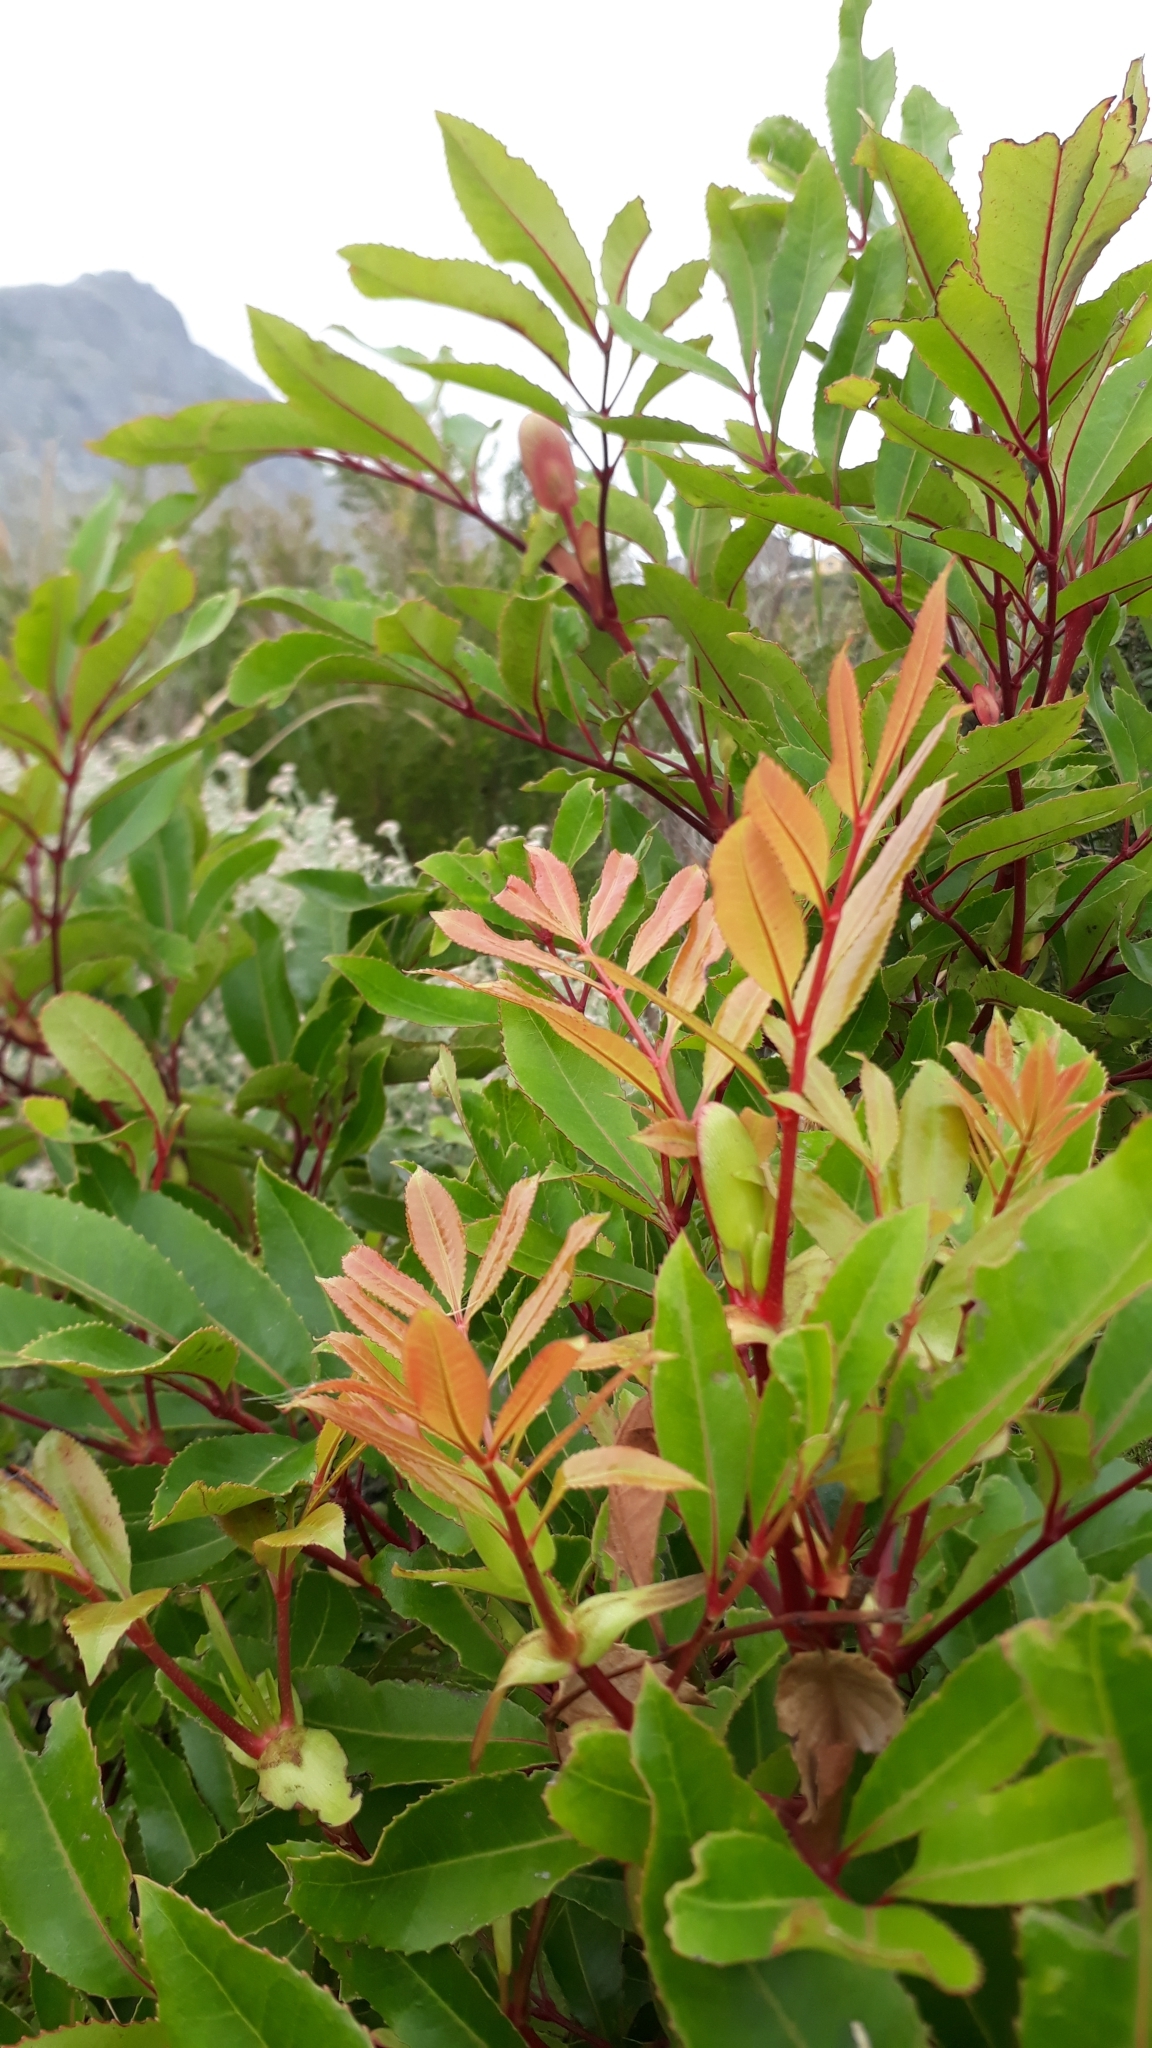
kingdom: Plantae
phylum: Tracheophyta
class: Magnoliopsida
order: Oxalidales
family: Cunoniaceae
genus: Cunonia
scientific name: Cunonia capensis
